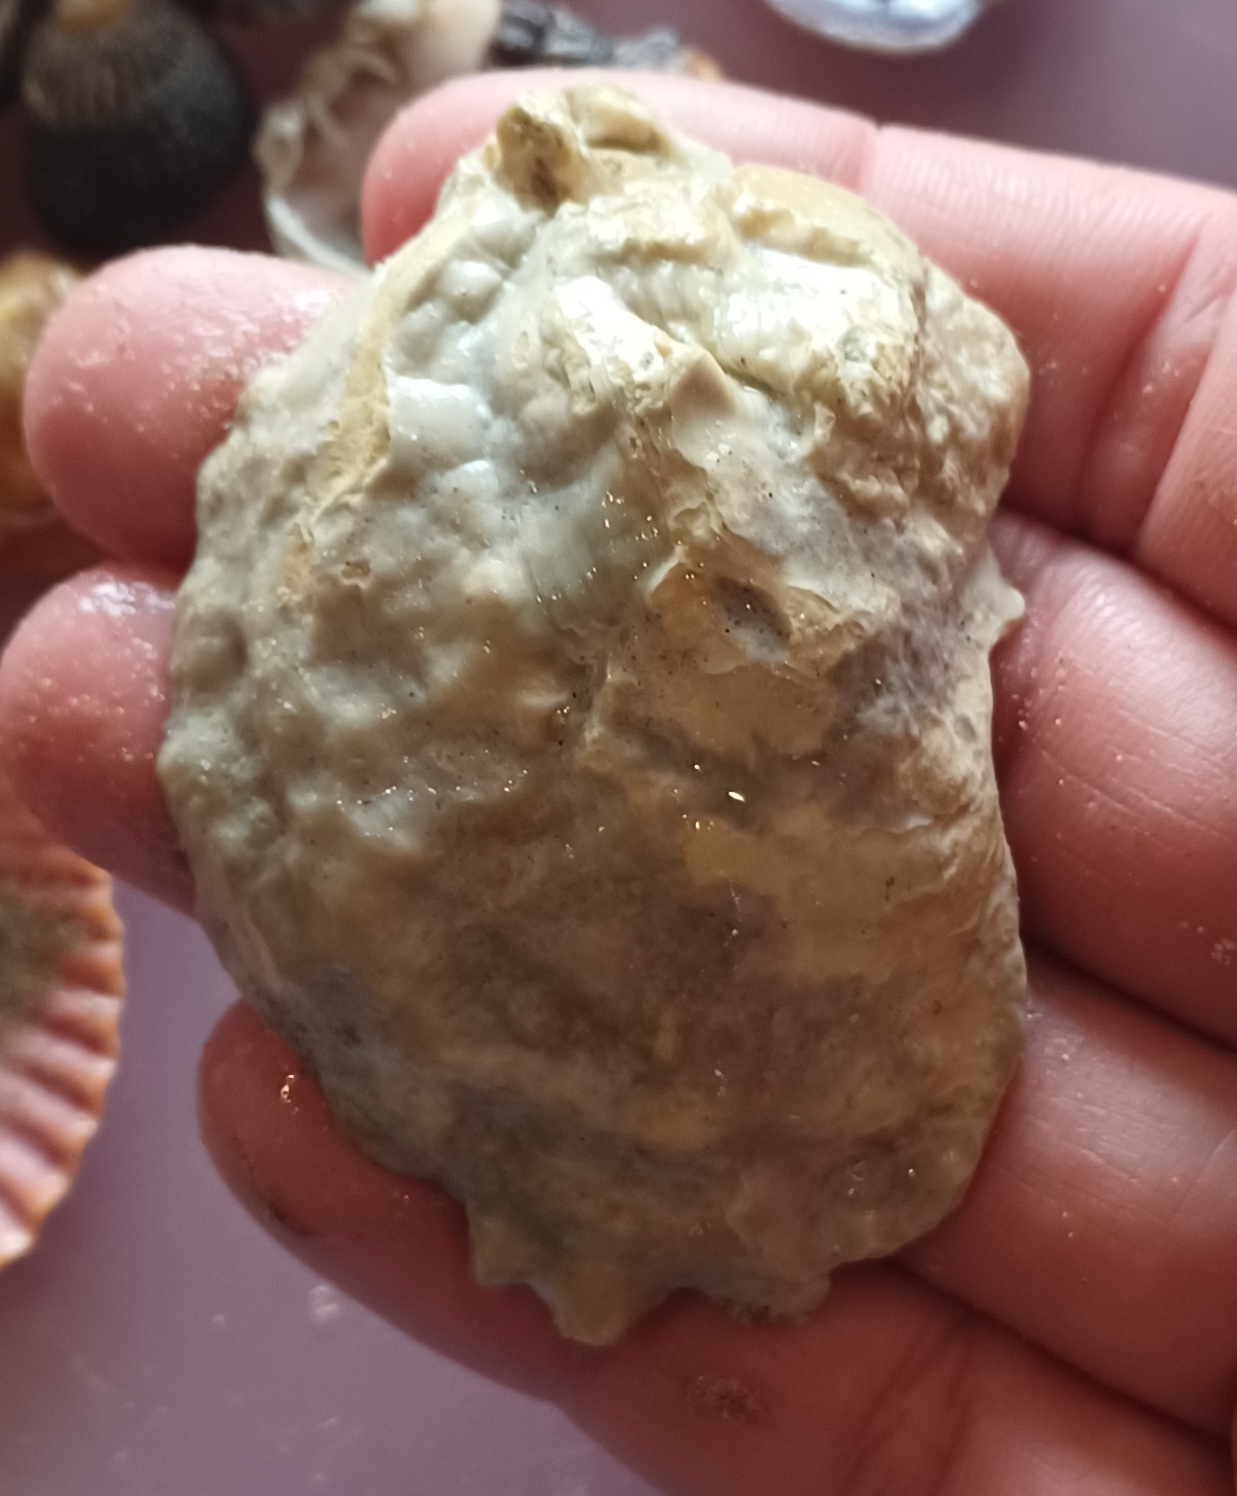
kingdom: Animalia
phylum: Mollusca
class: Bivalvia
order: Ostreida
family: Ostreidae
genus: Ostrea
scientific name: Ostrea angasi
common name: Angasi oyster
